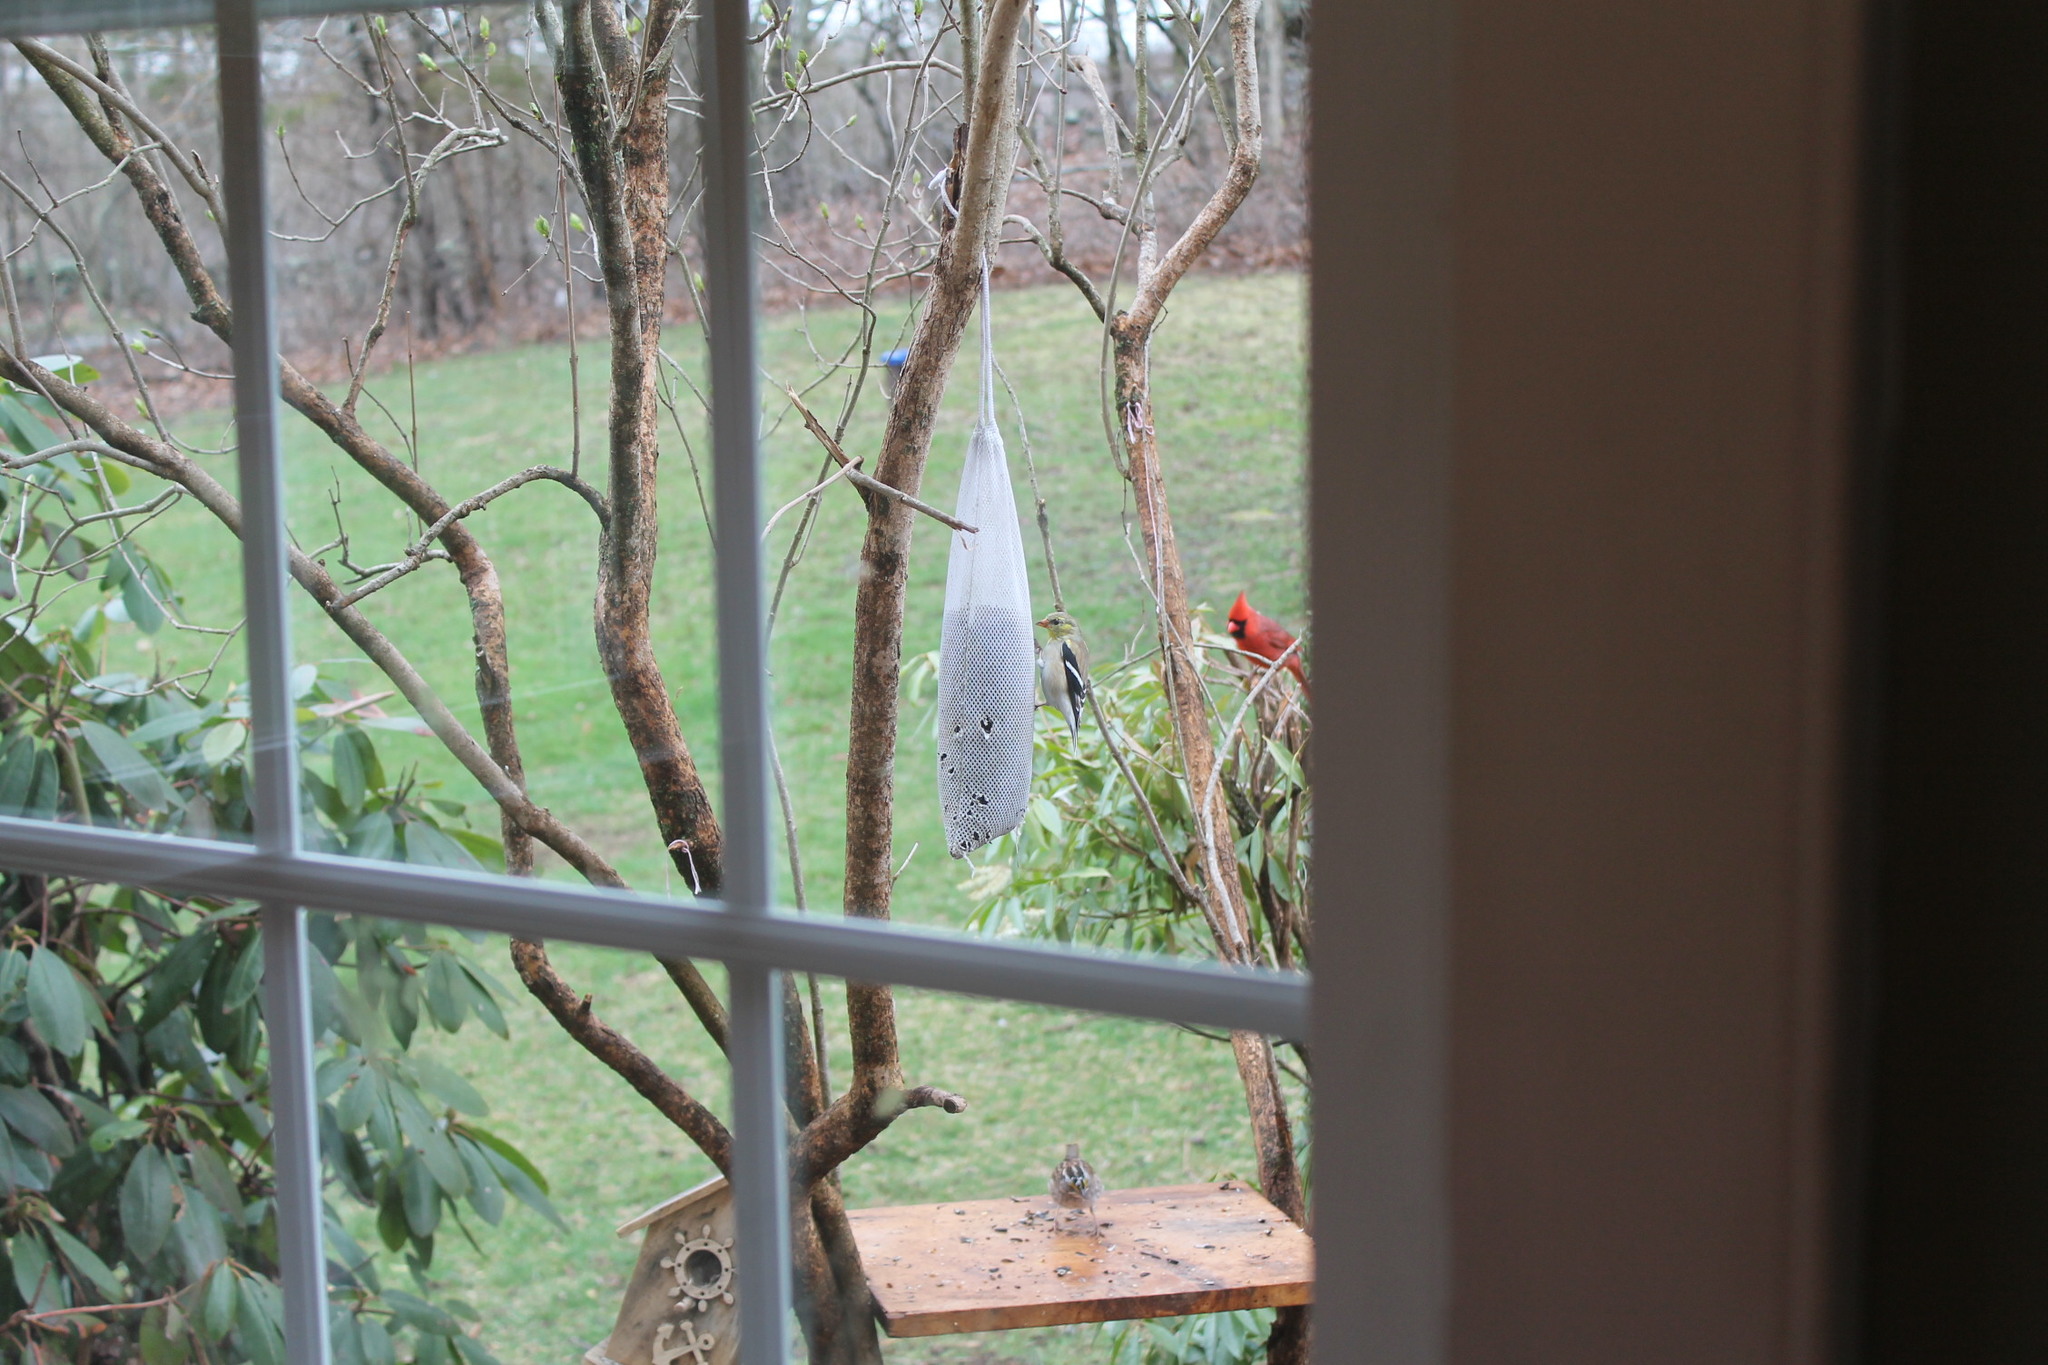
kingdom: Animalia
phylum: Chordata
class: Aves
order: Passeriformes
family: Fringillidae
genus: Spinus
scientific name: Spinus tristis
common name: American goldfinch
